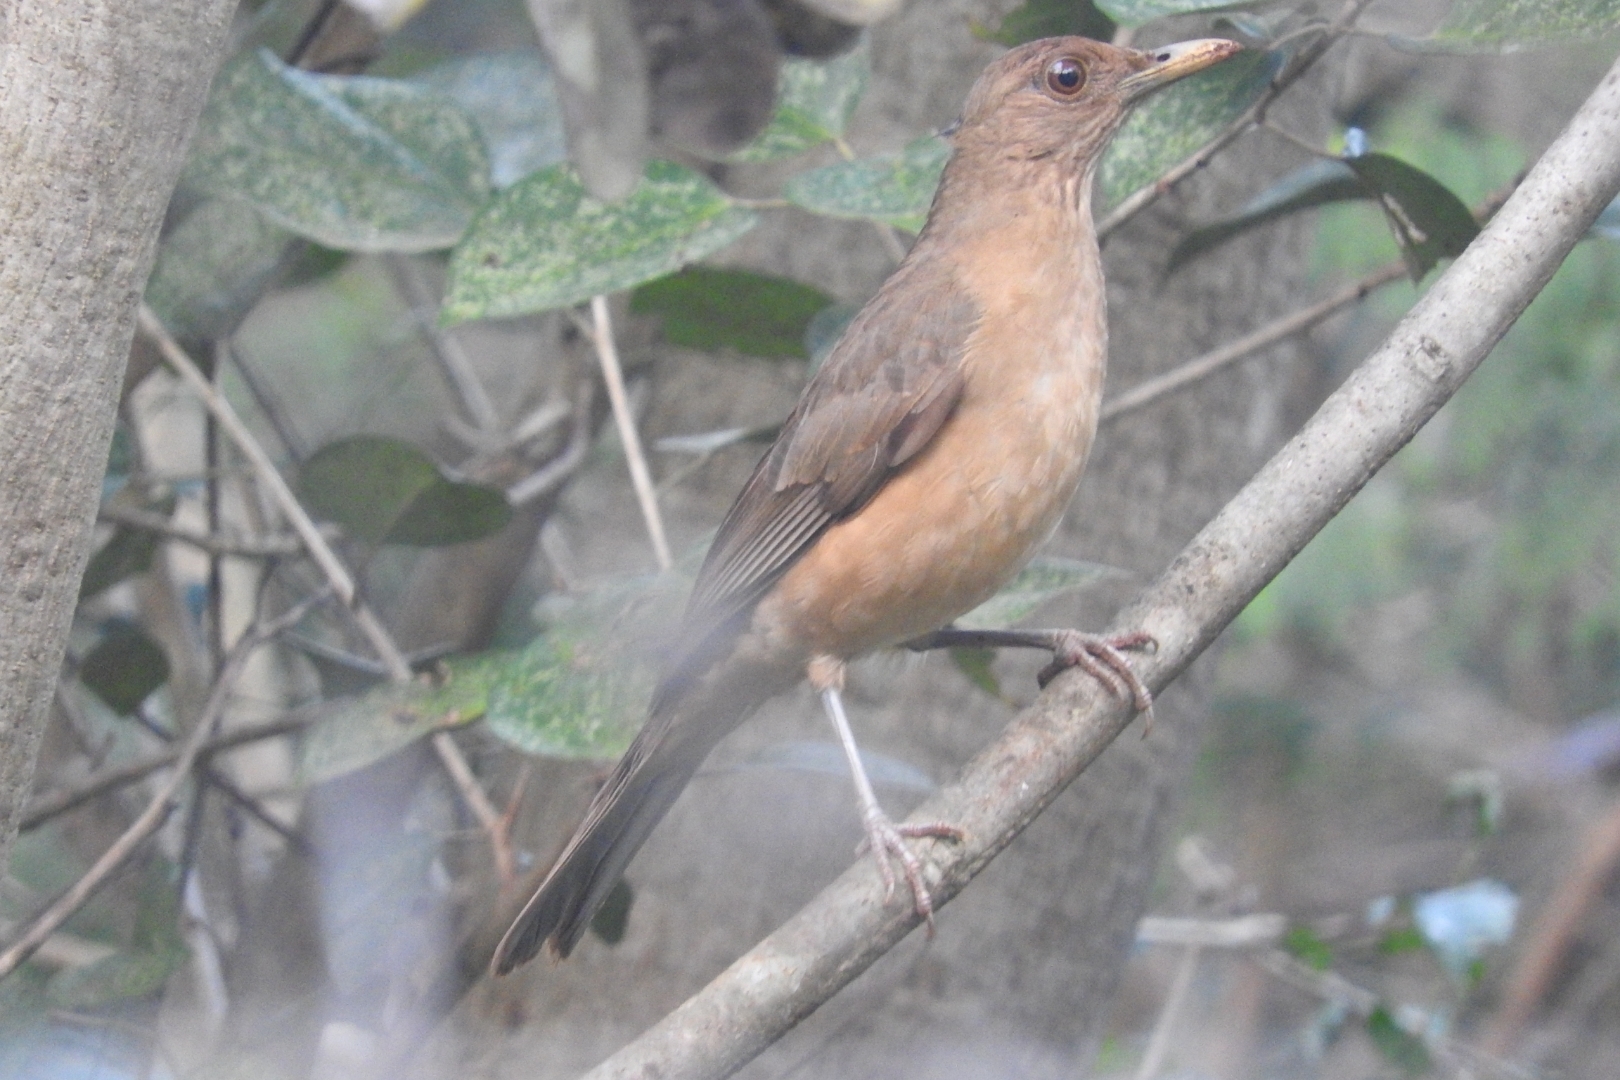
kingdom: Animalia
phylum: Chordata
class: Aves
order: Passeriformes
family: Turdidae
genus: Turdus
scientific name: Turdus grayi
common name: Clay-colored thrush
